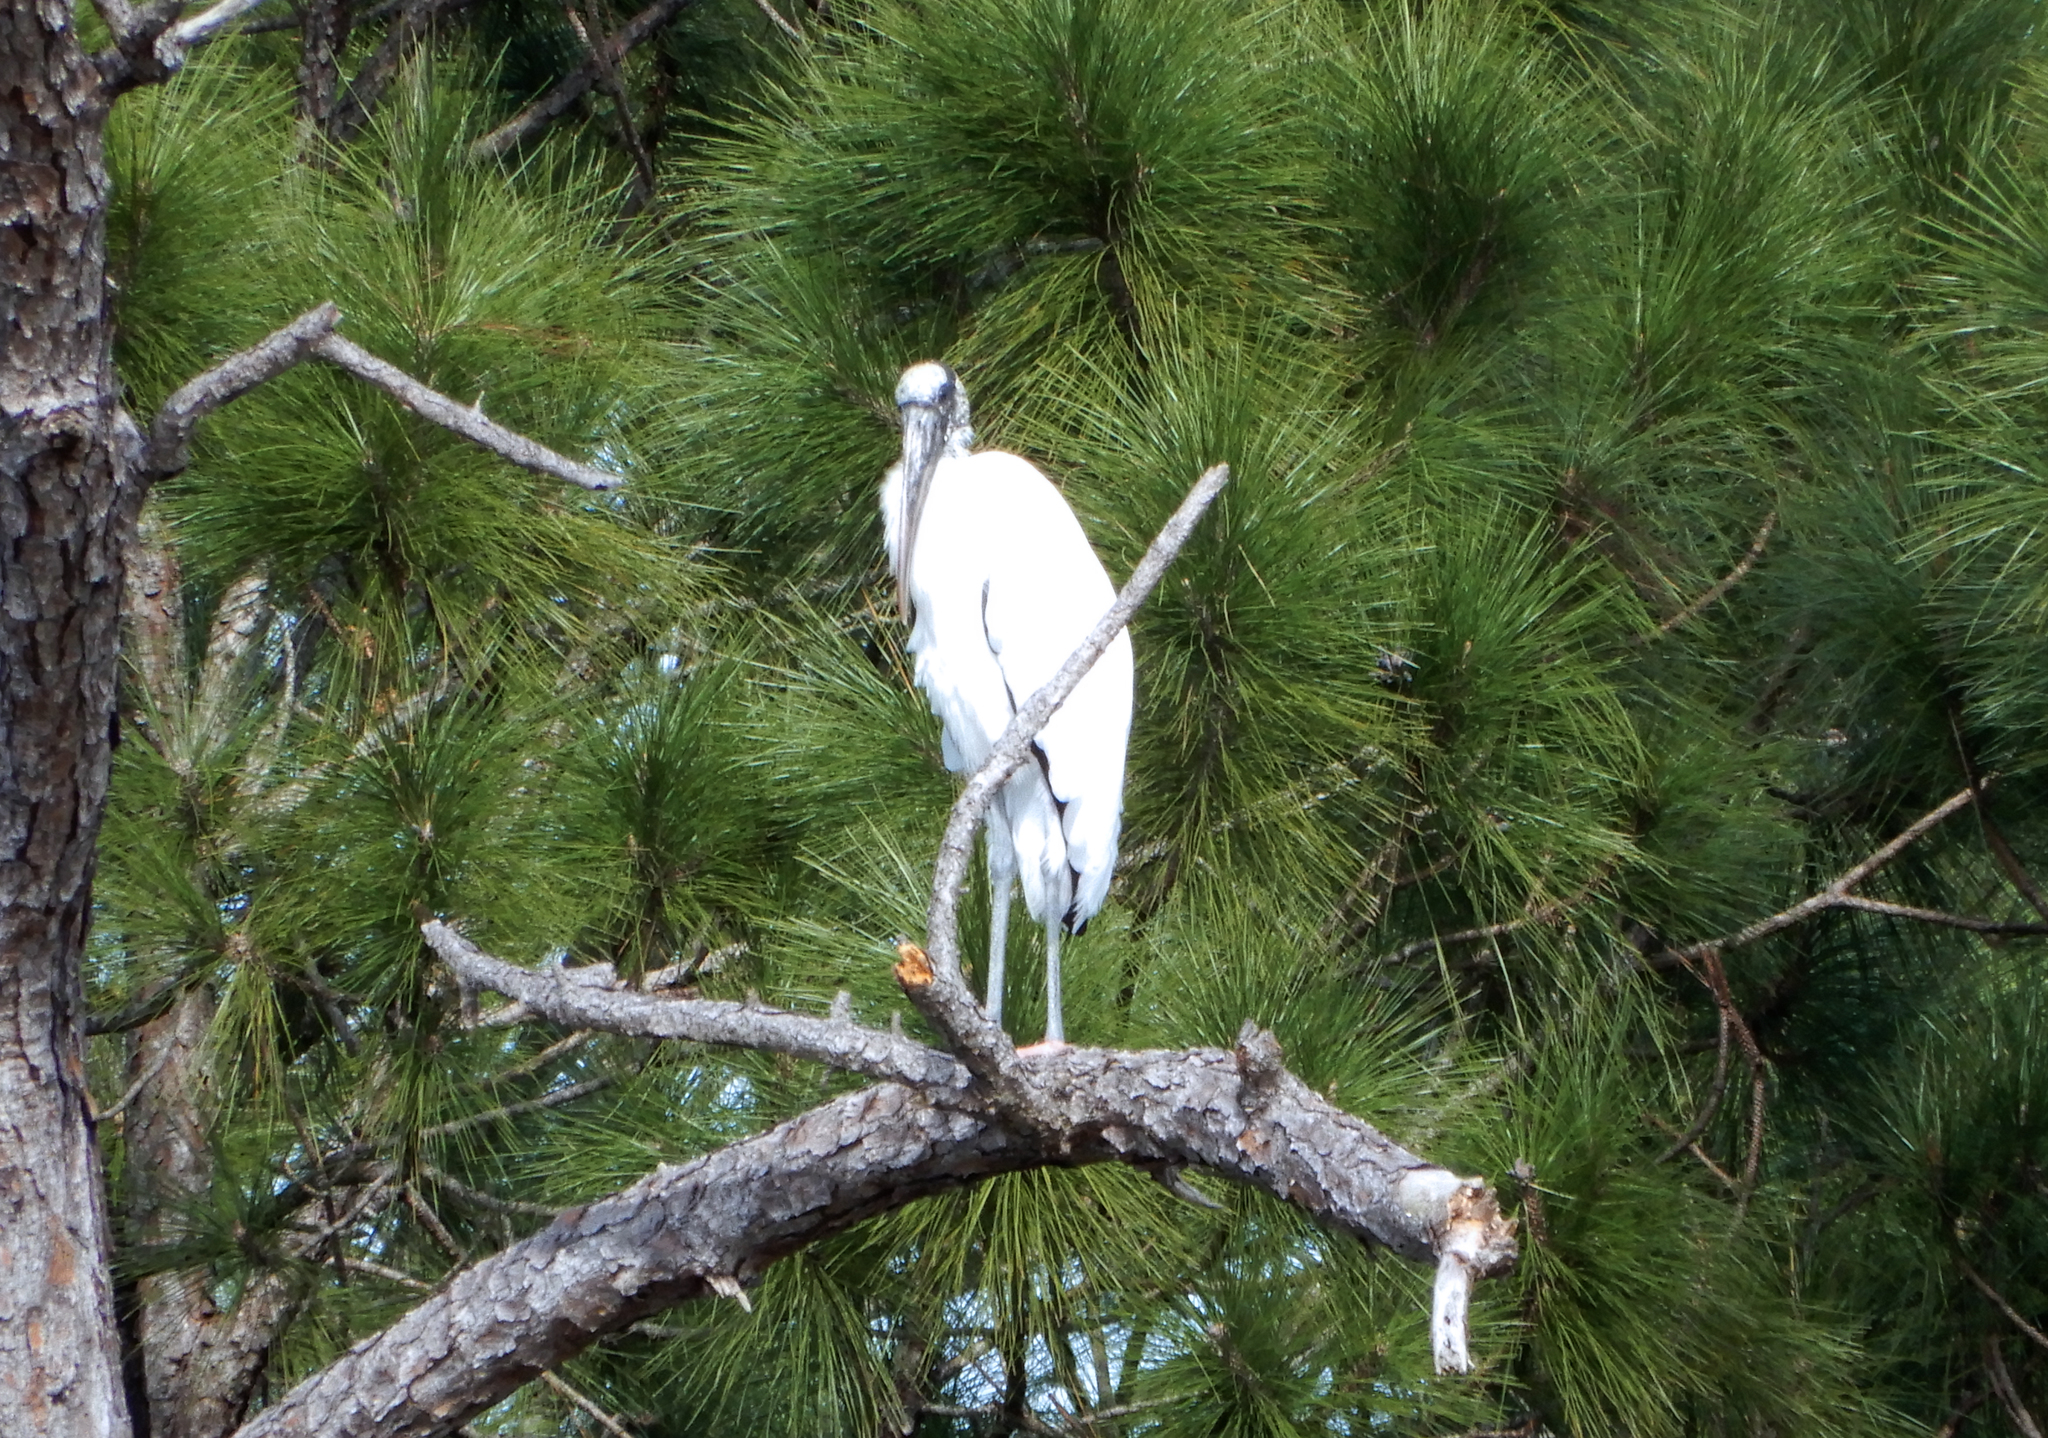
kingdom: Animalia
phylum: Chordata
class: Aves
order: Ciconiiformes
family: Ciconiidae
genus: Mycteria
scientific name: Mycteria americana
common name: Wood stork
